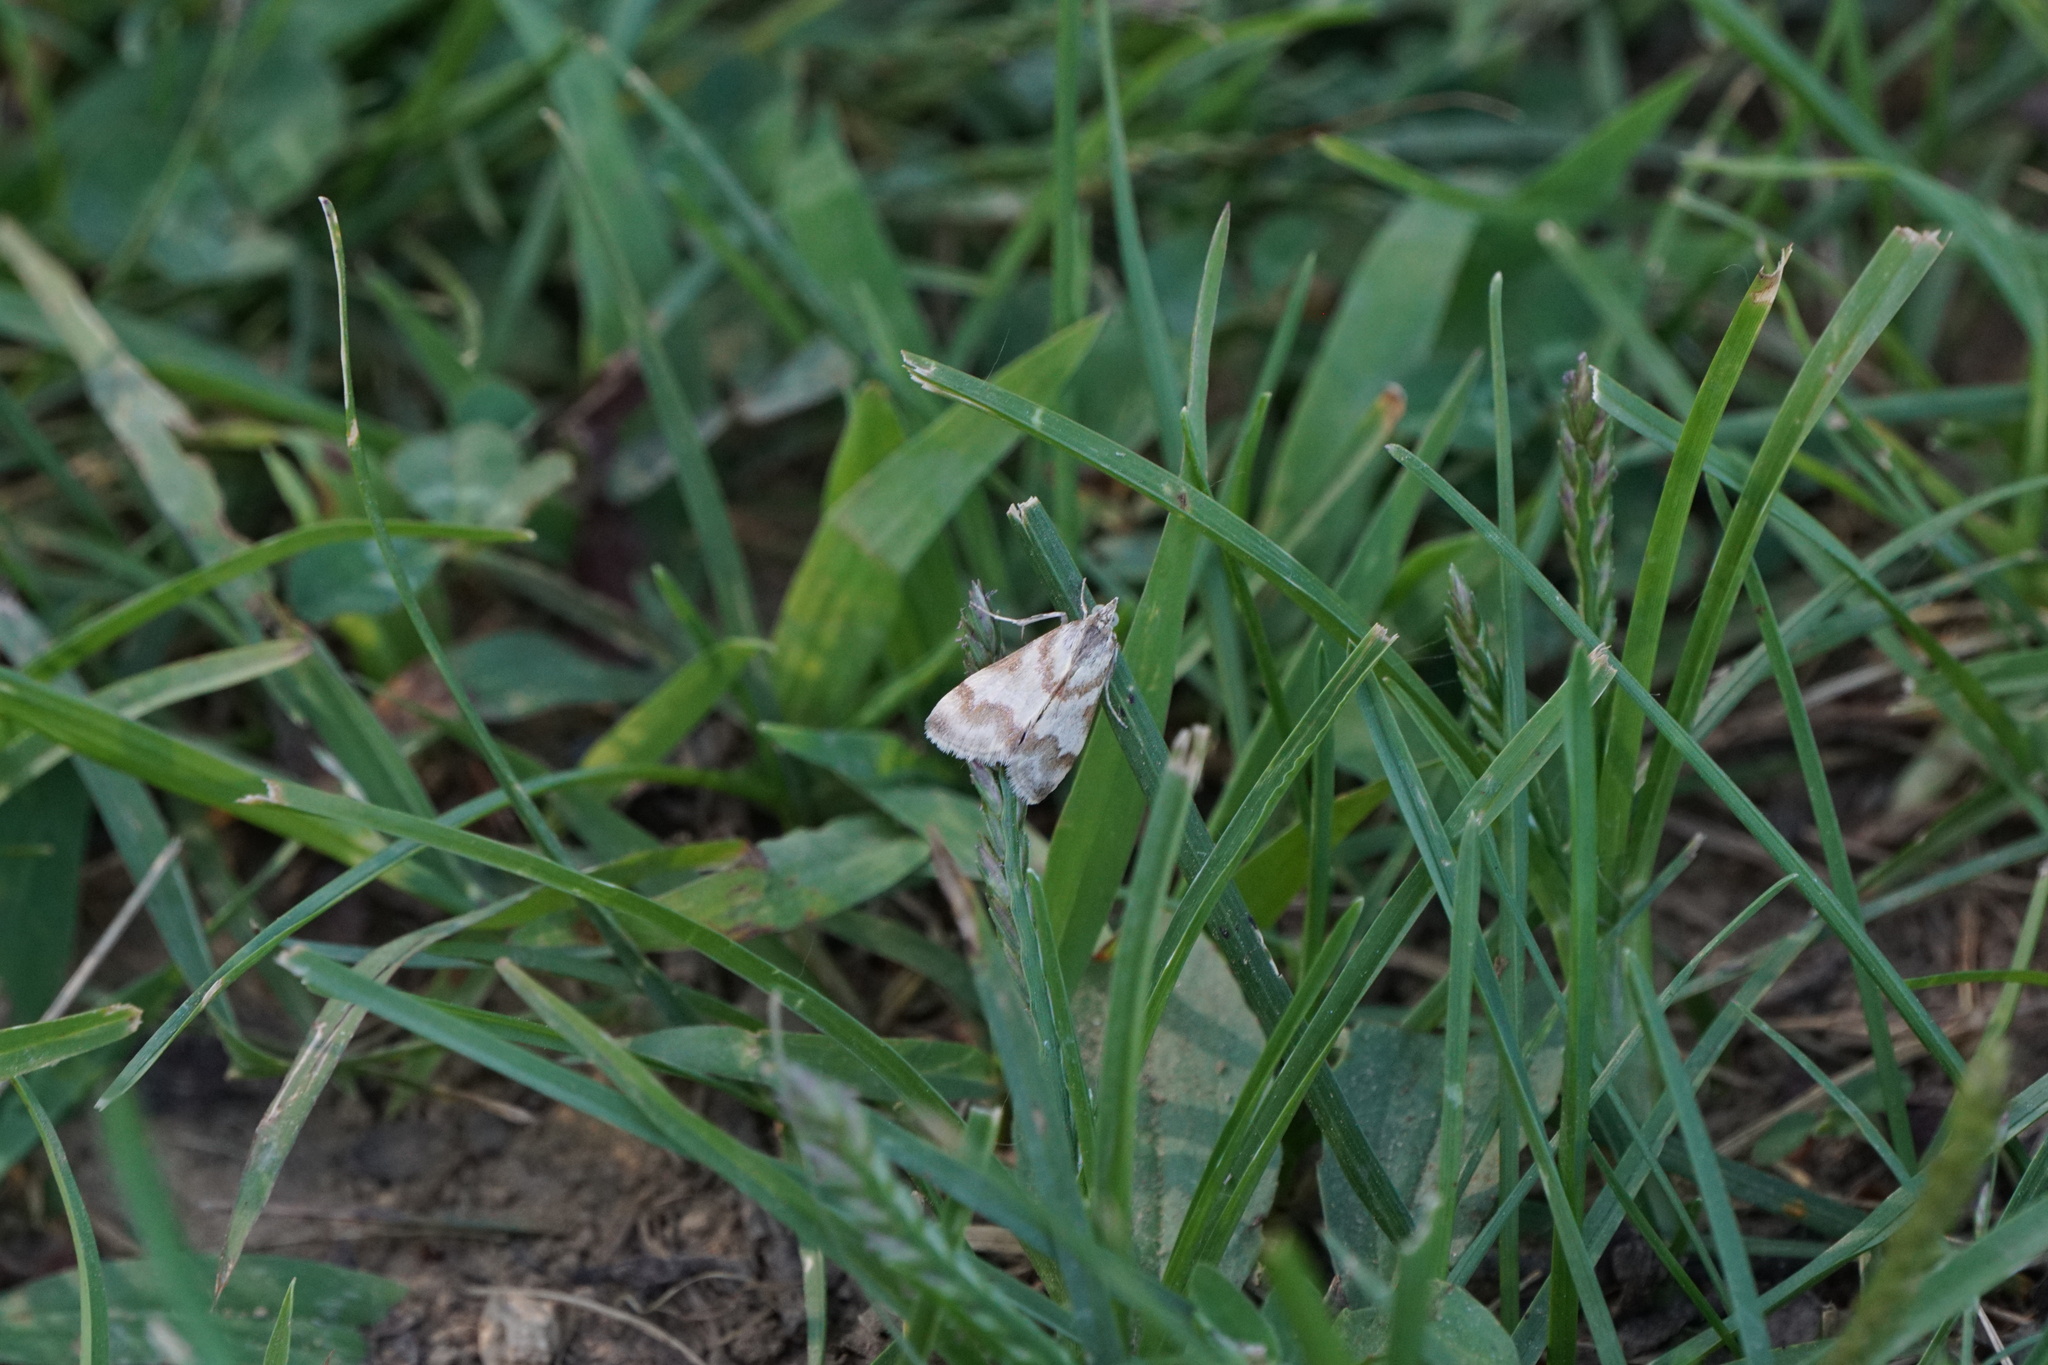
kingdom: Animalia
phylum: Arthropoda
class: Insecta
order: Lepidoptera
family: Crambidae
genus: Noctuelia
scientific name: Noctuelia Mimoschinia rufofascialis
